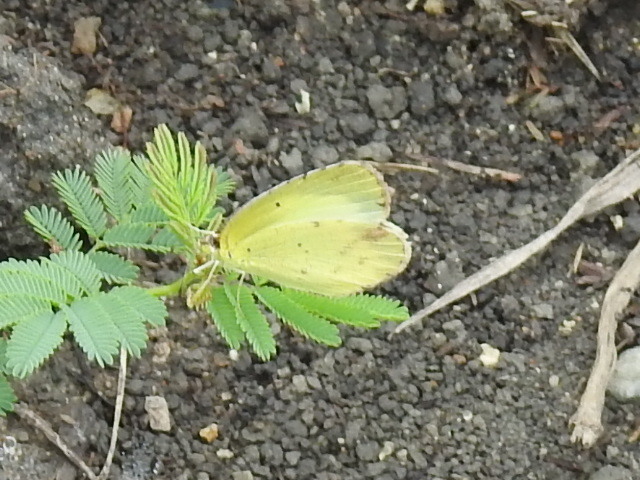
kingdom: Animalia
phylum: Arthropoda
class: Insecta
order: Lepidoptera
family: Pieridae
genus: Pyrisitia
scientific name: Pyrisitia lisa
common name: Little yellow
